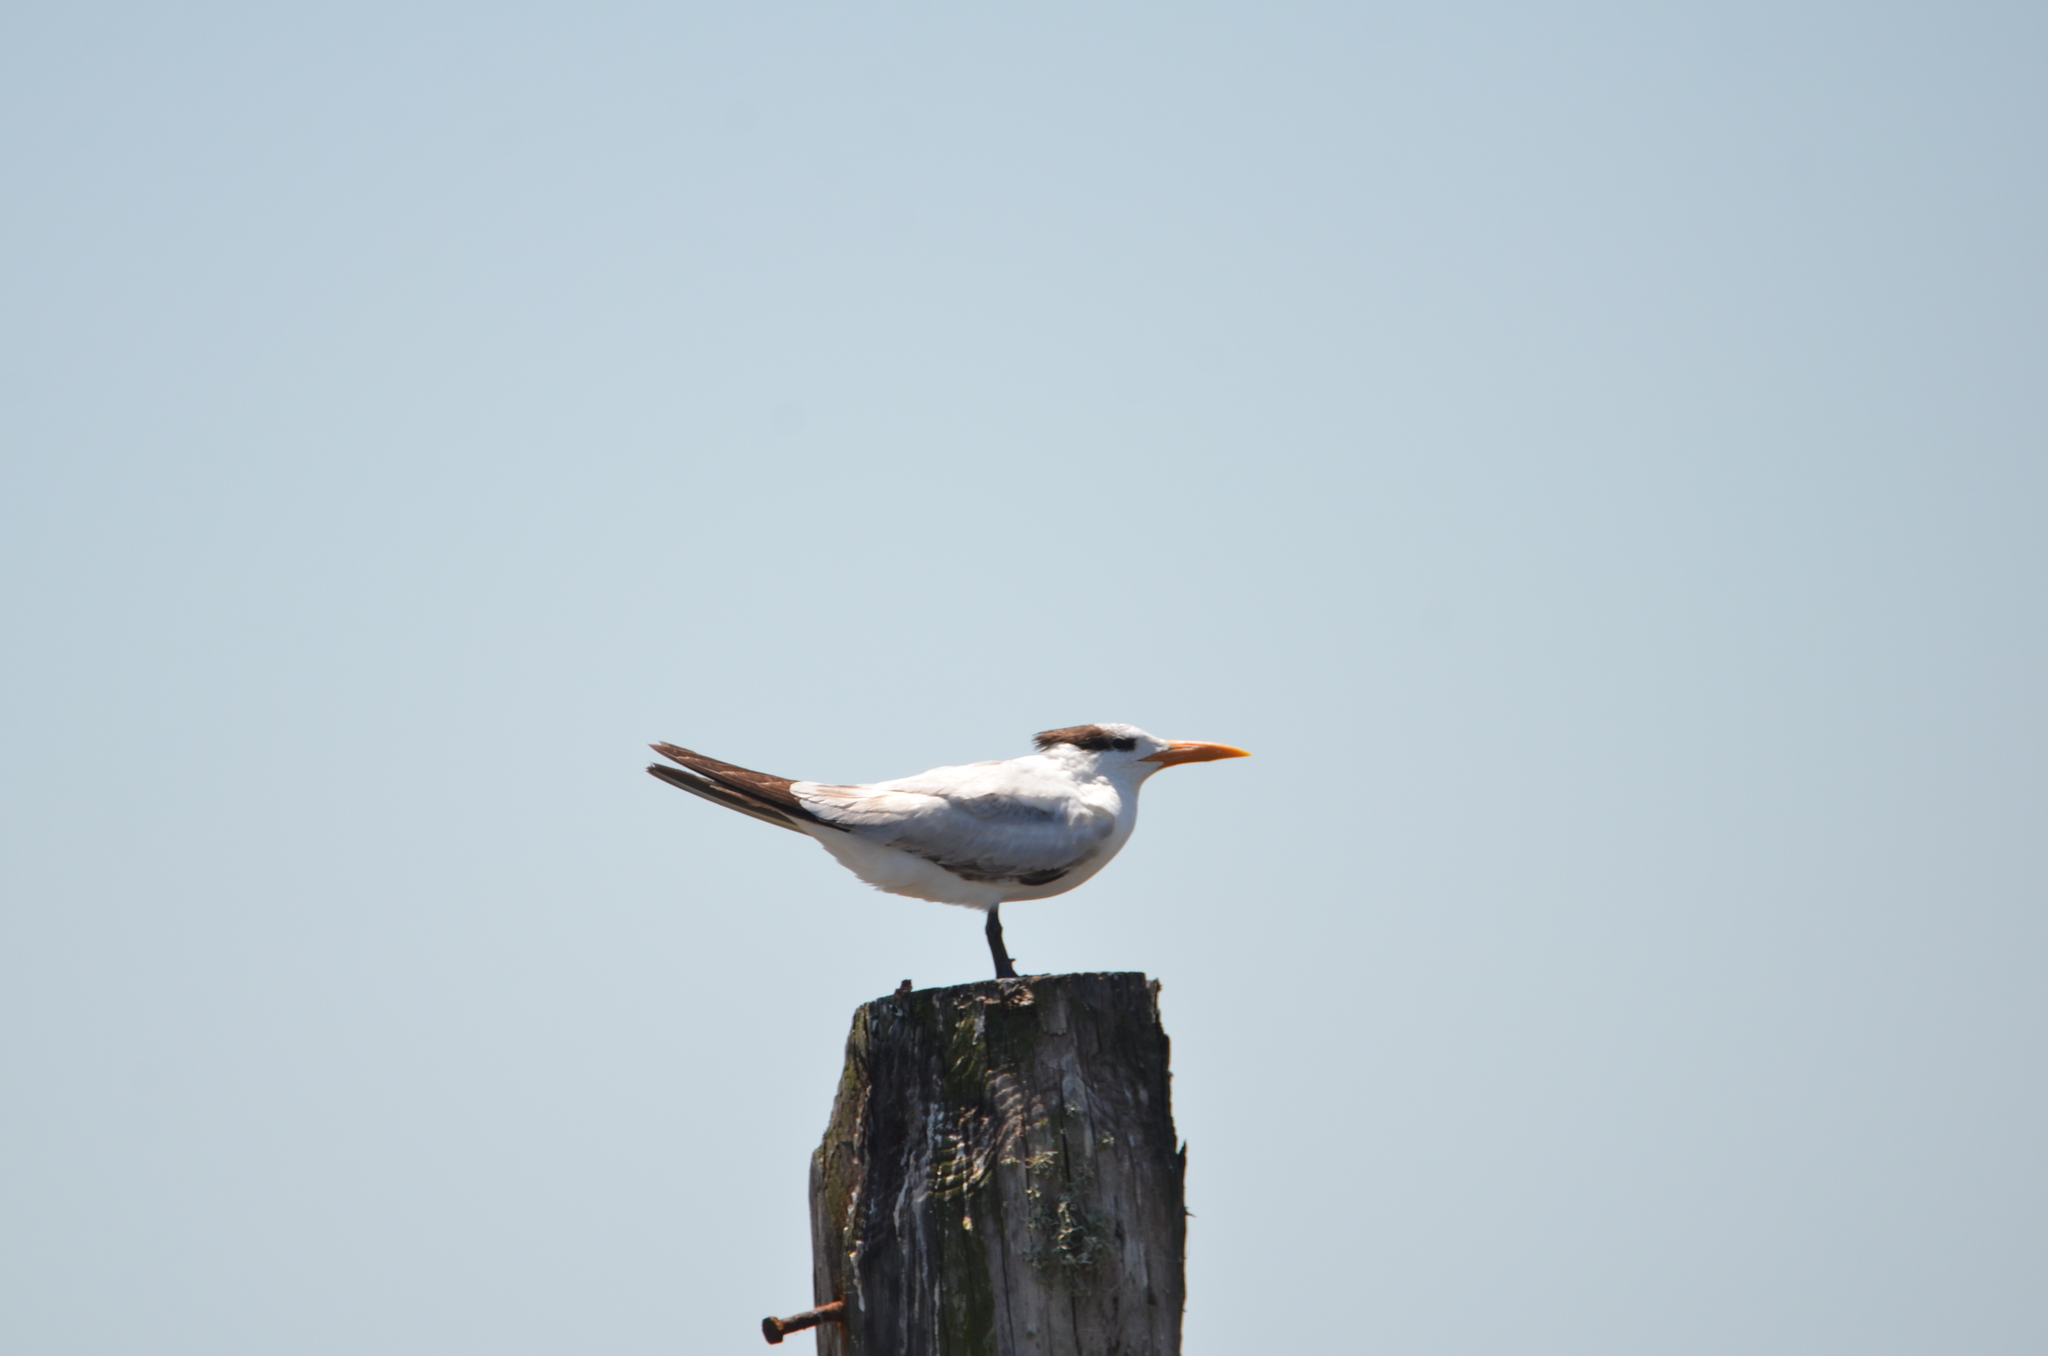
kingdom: Animalia
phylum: Chordata
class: Aves
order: Charadriiformes
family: Laridae
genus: Thalasseus
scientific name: Thalasseus maximus
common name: Royal tern
